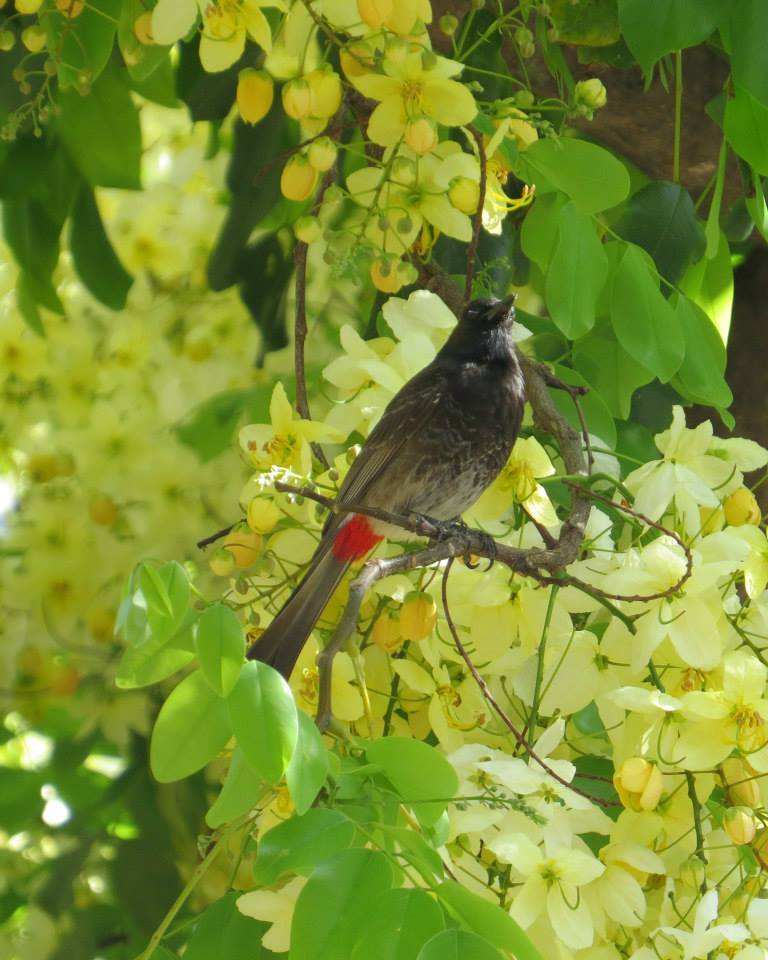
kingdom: Animalia
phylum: Chordata
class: Aves
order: Passeriformes
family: Pycnonotidae
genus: Pycnonotus
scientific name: Pycnonotus cafer
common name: Red-vented bulbul
